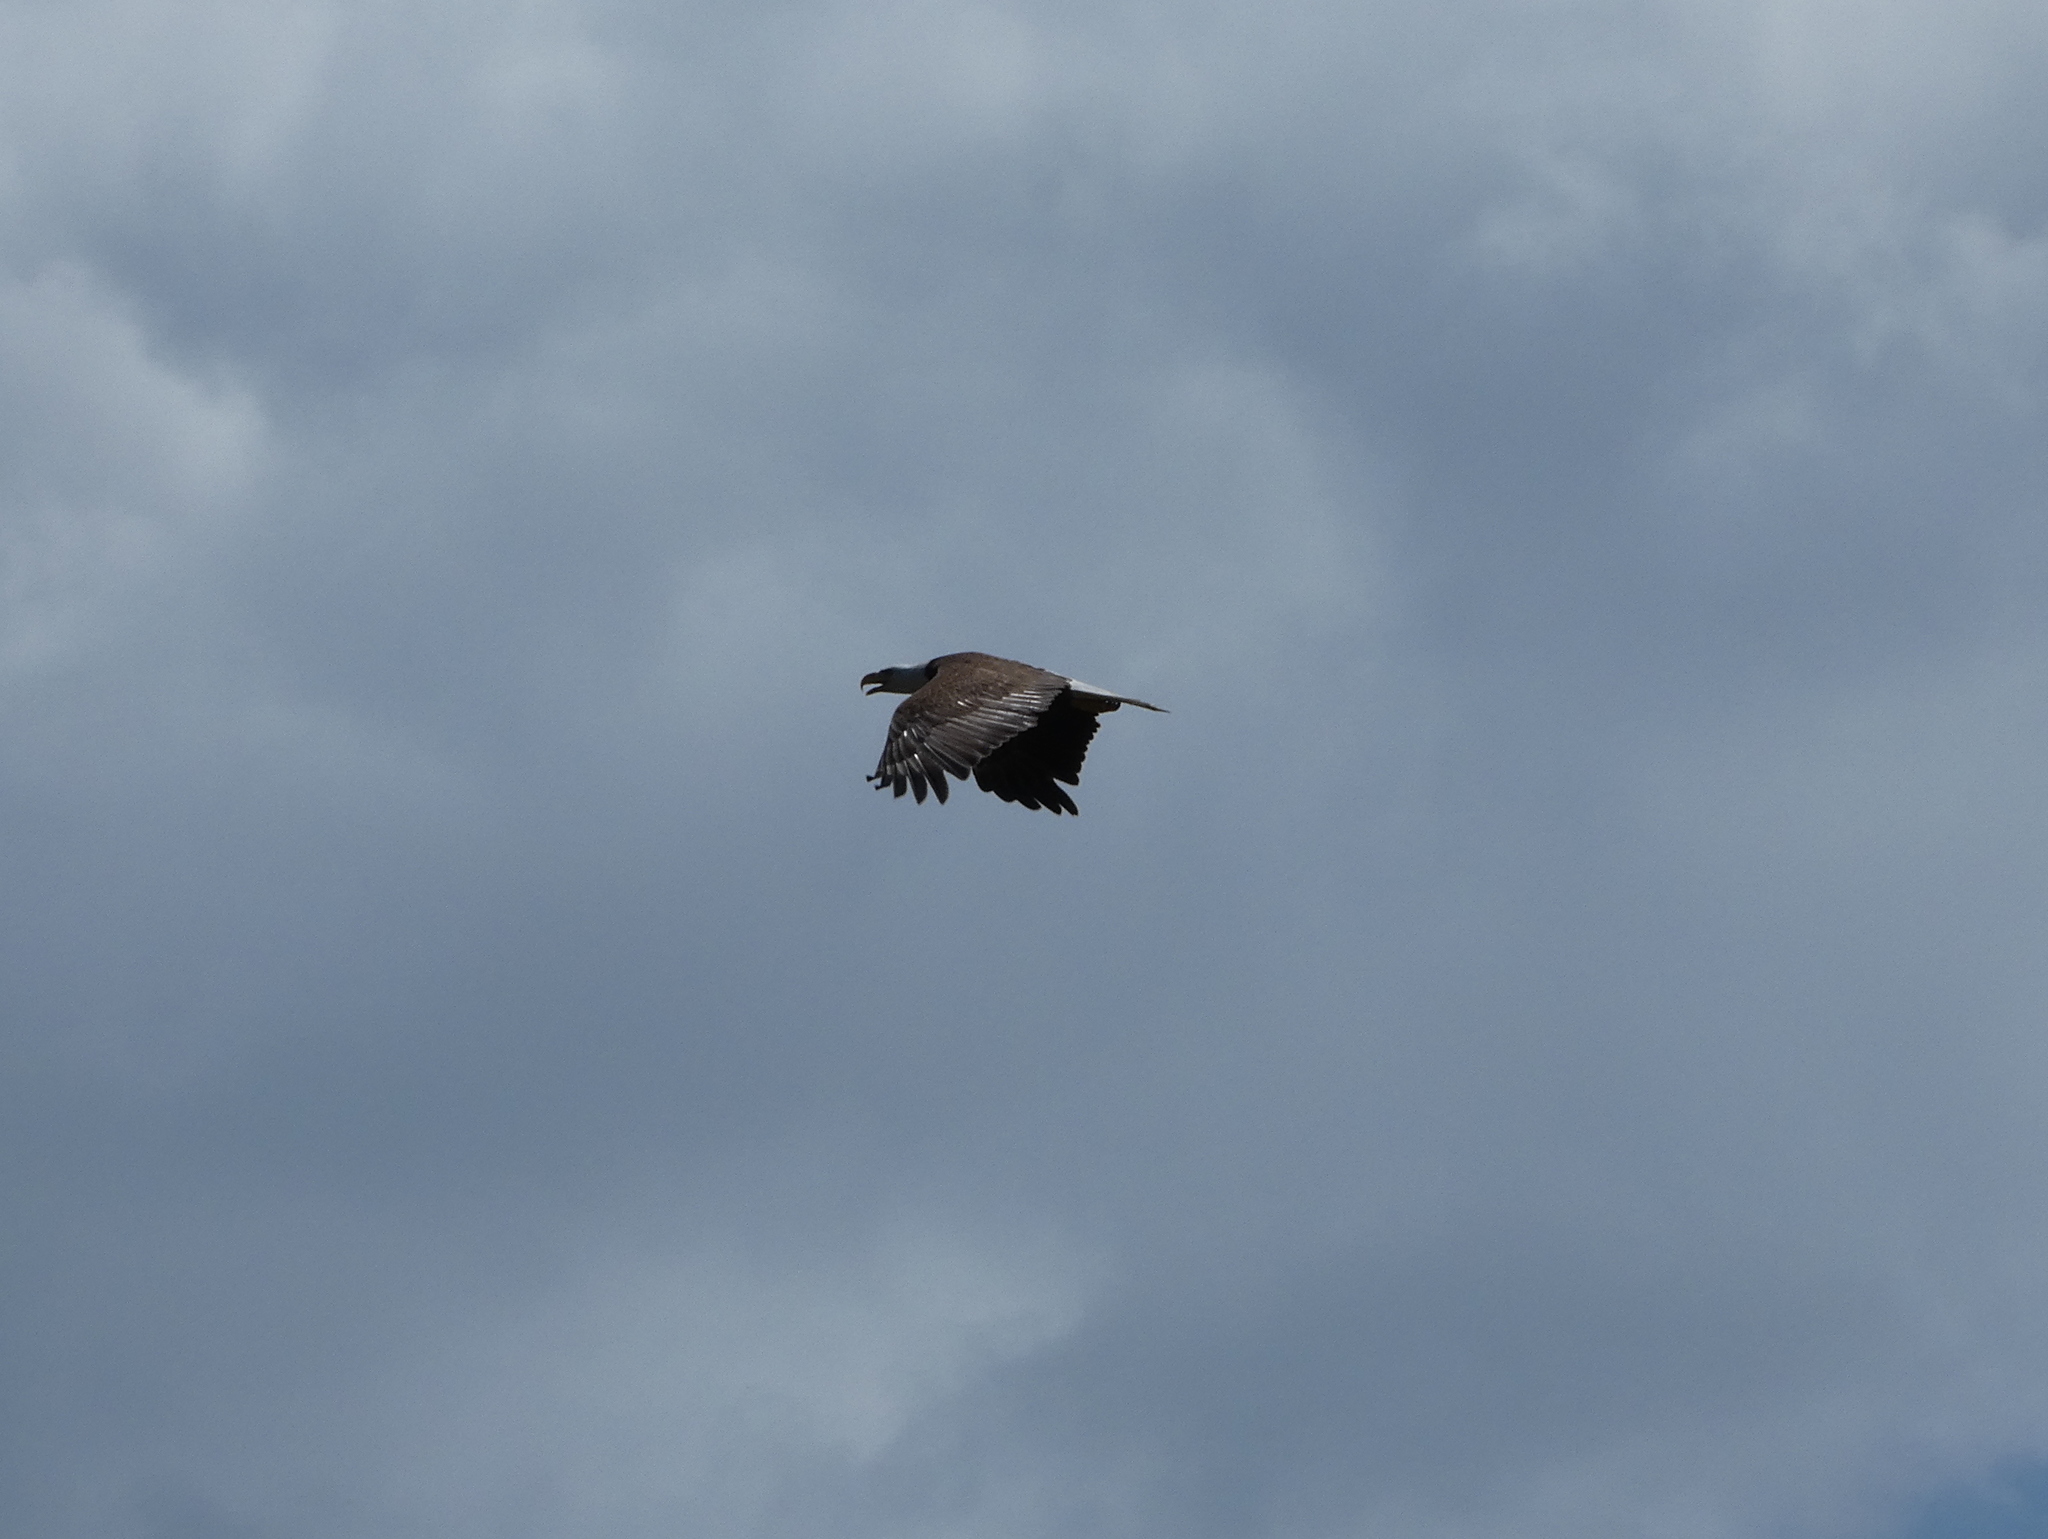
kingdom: Animalia
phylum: Chordata
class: Aves
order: Accipitriformes
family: Accipitridae
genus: Haliaeetus
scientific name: Haliaeetus leucocephalus
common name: Bald eagle
